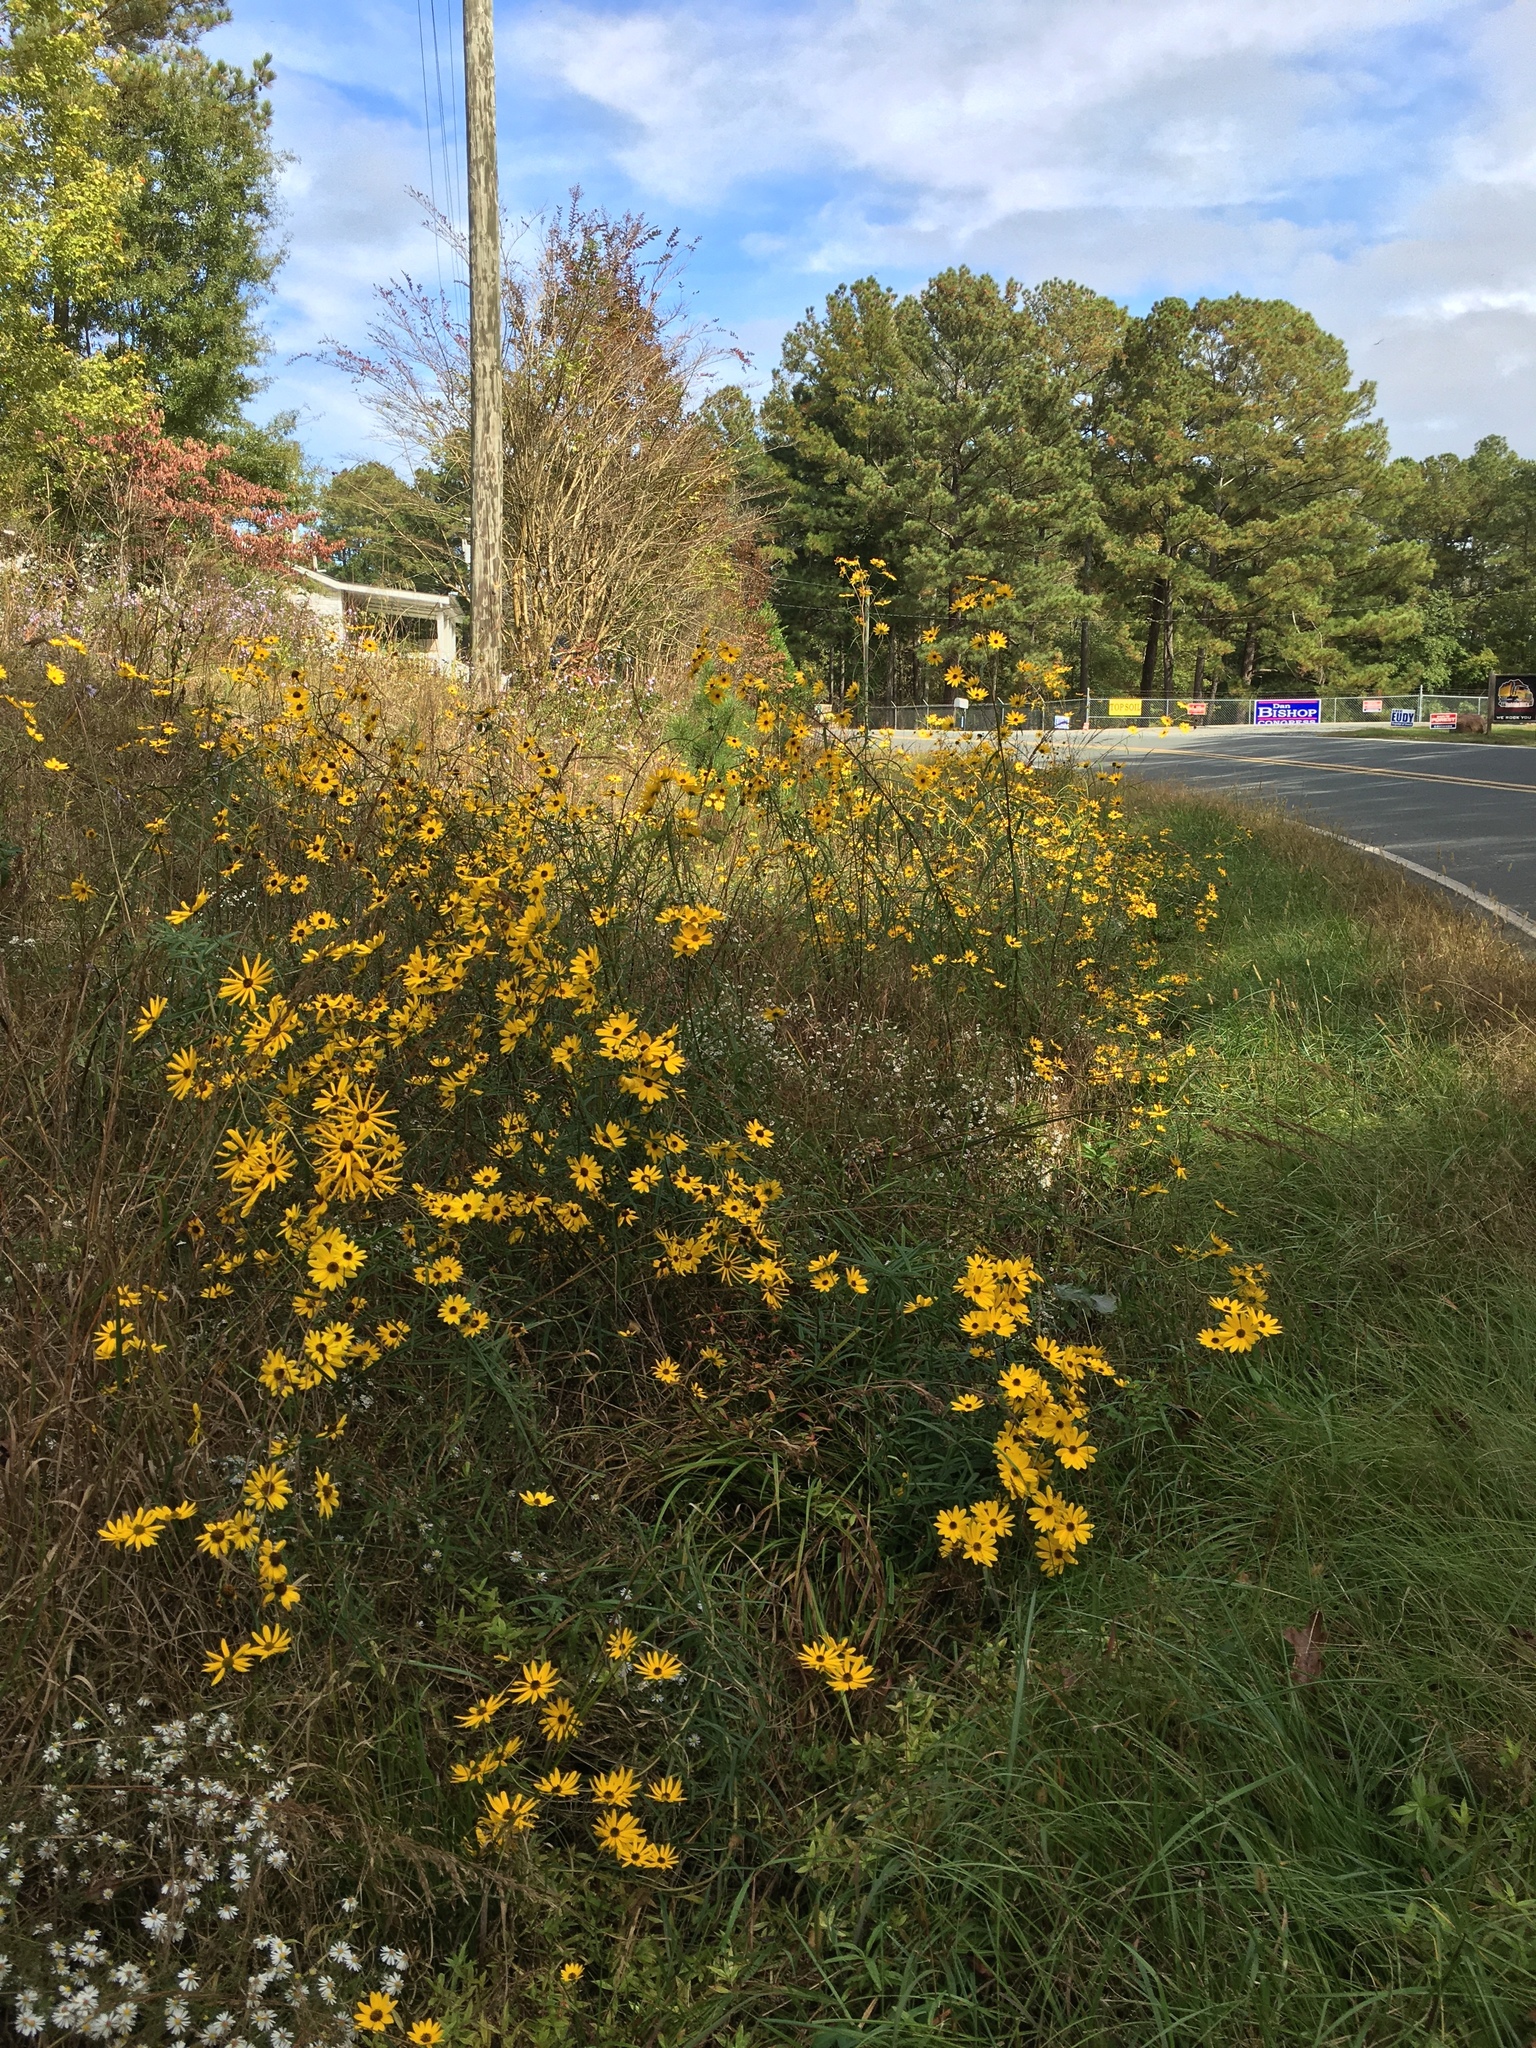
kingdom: Plantae
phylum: Tracheophyta
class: Magnoliopsida
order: Asterales
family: Asteraceae
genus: Helianthus
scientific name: Helianthus angustifolius
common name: Swamp sunflower
